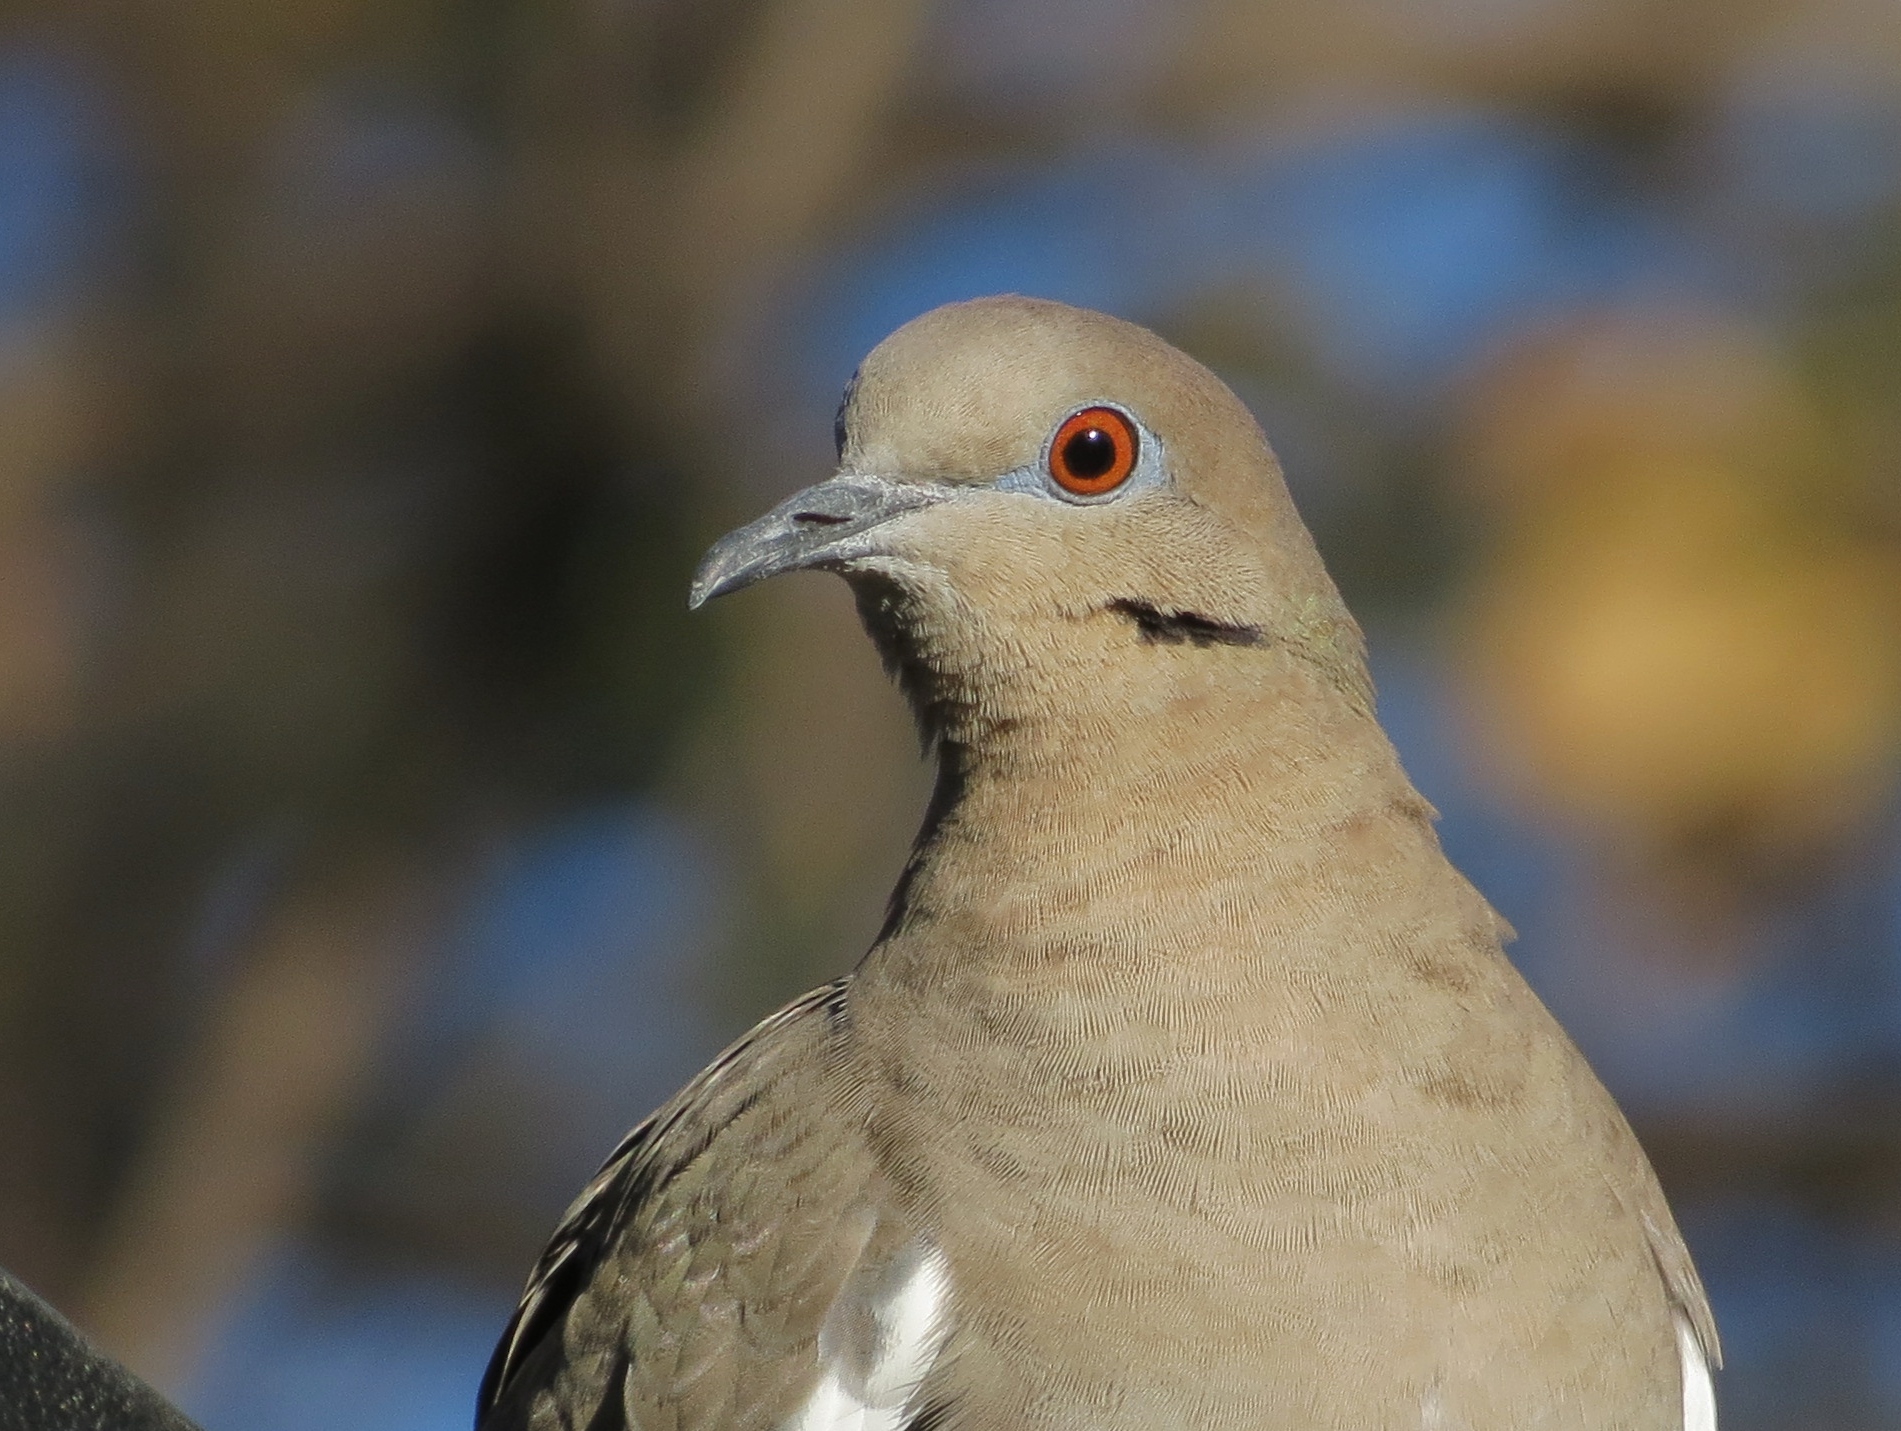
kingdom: Animalia
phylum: Chordata
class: Aves
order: Columbiformes
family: Columbidae
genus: Zenaida
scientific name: Zenaida asiatica
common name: White-winged dove
